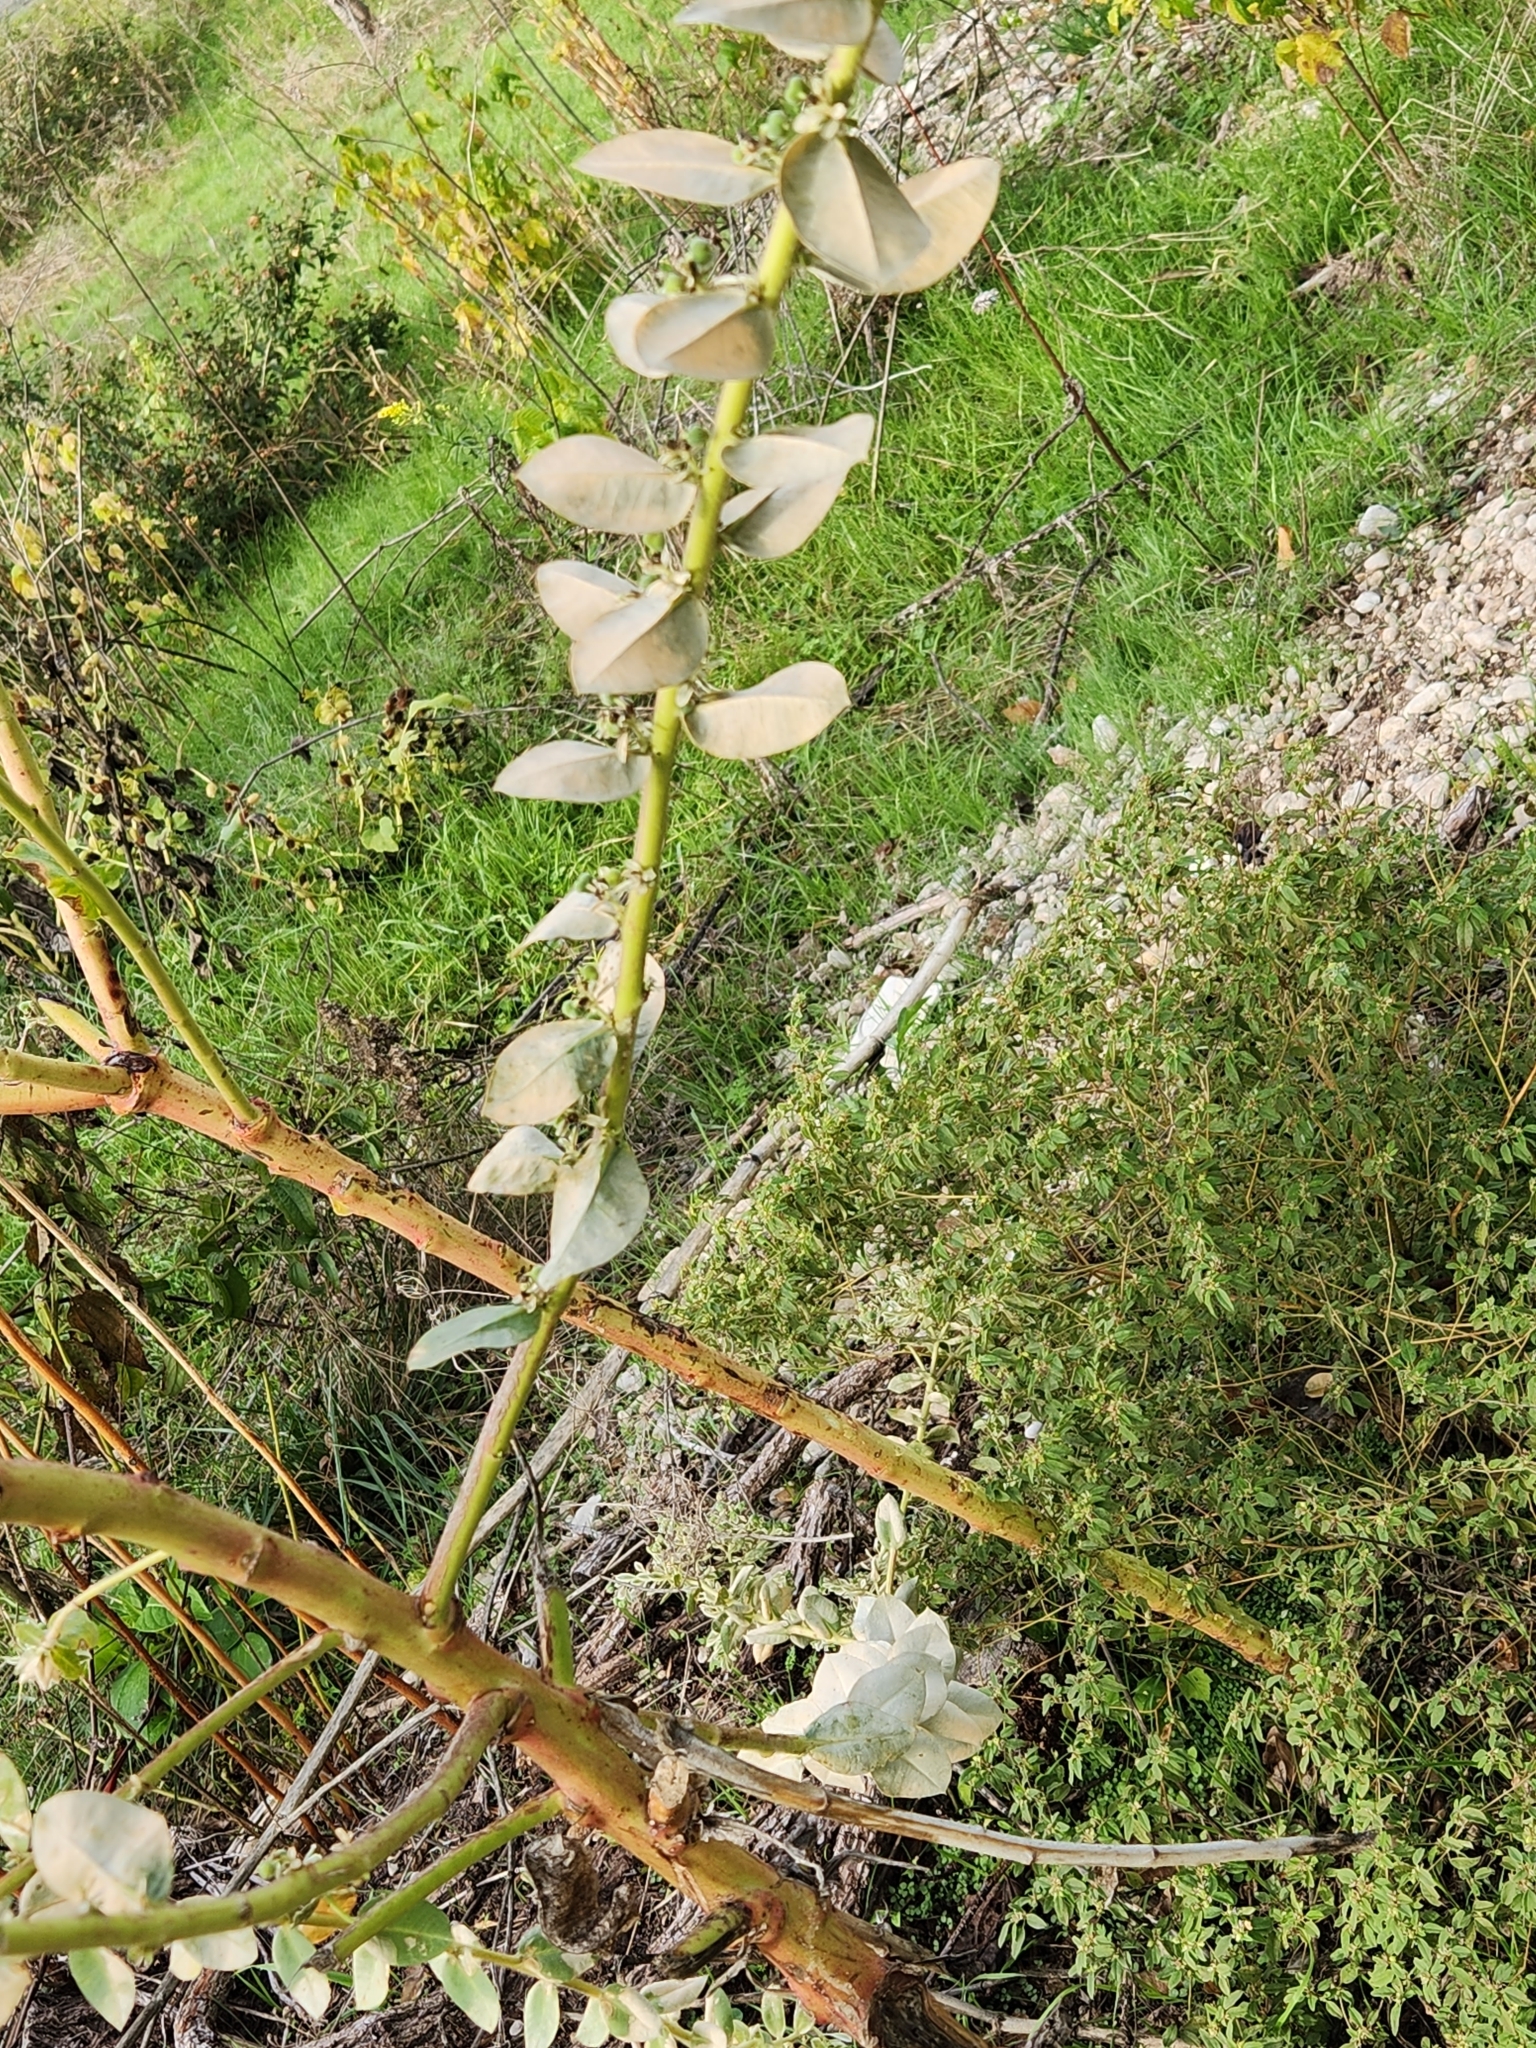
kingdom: Plantae
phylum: Tracheophyta
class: Magnoliopsida
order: Malpighiales
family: Euphorbiaceae
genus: Euphorbia
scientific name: Euphorbia marginata
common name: Ghostweed
